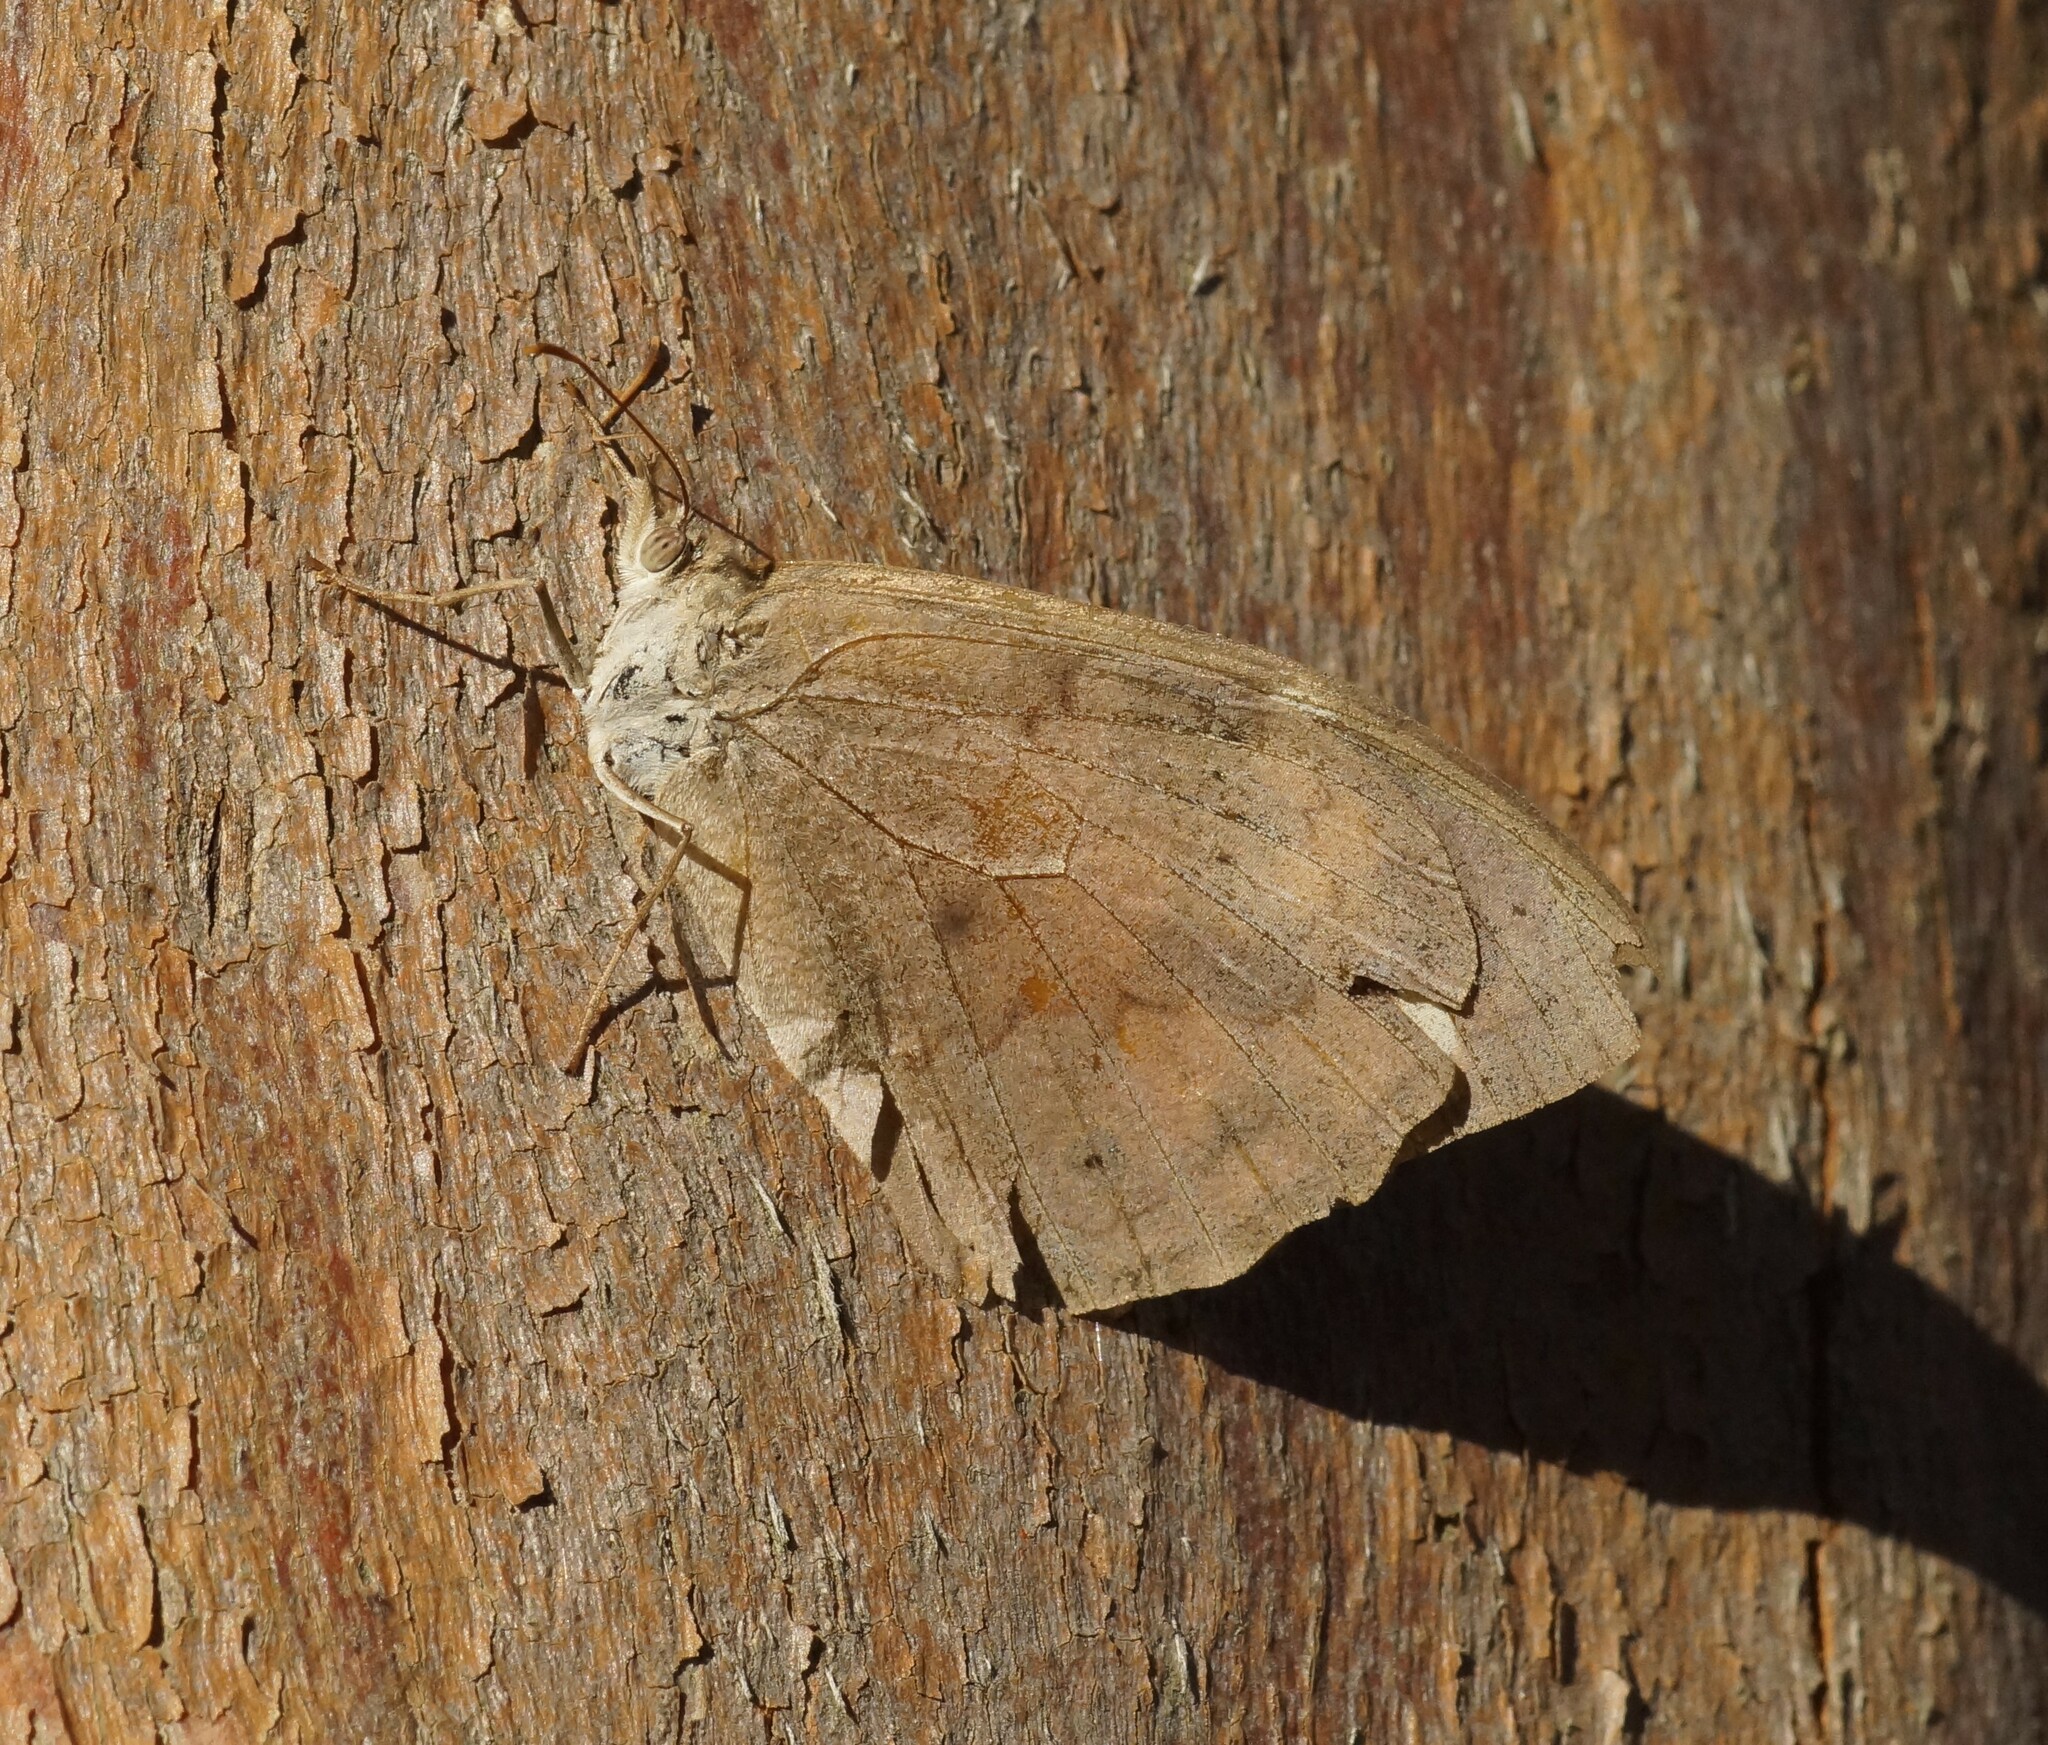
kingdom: Animalia
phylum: Arthropoda
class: Insecta
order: Lepidoptera
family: Nymphalidae
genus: Heteronympha
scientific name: Heteronympha merope
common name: Common brown
